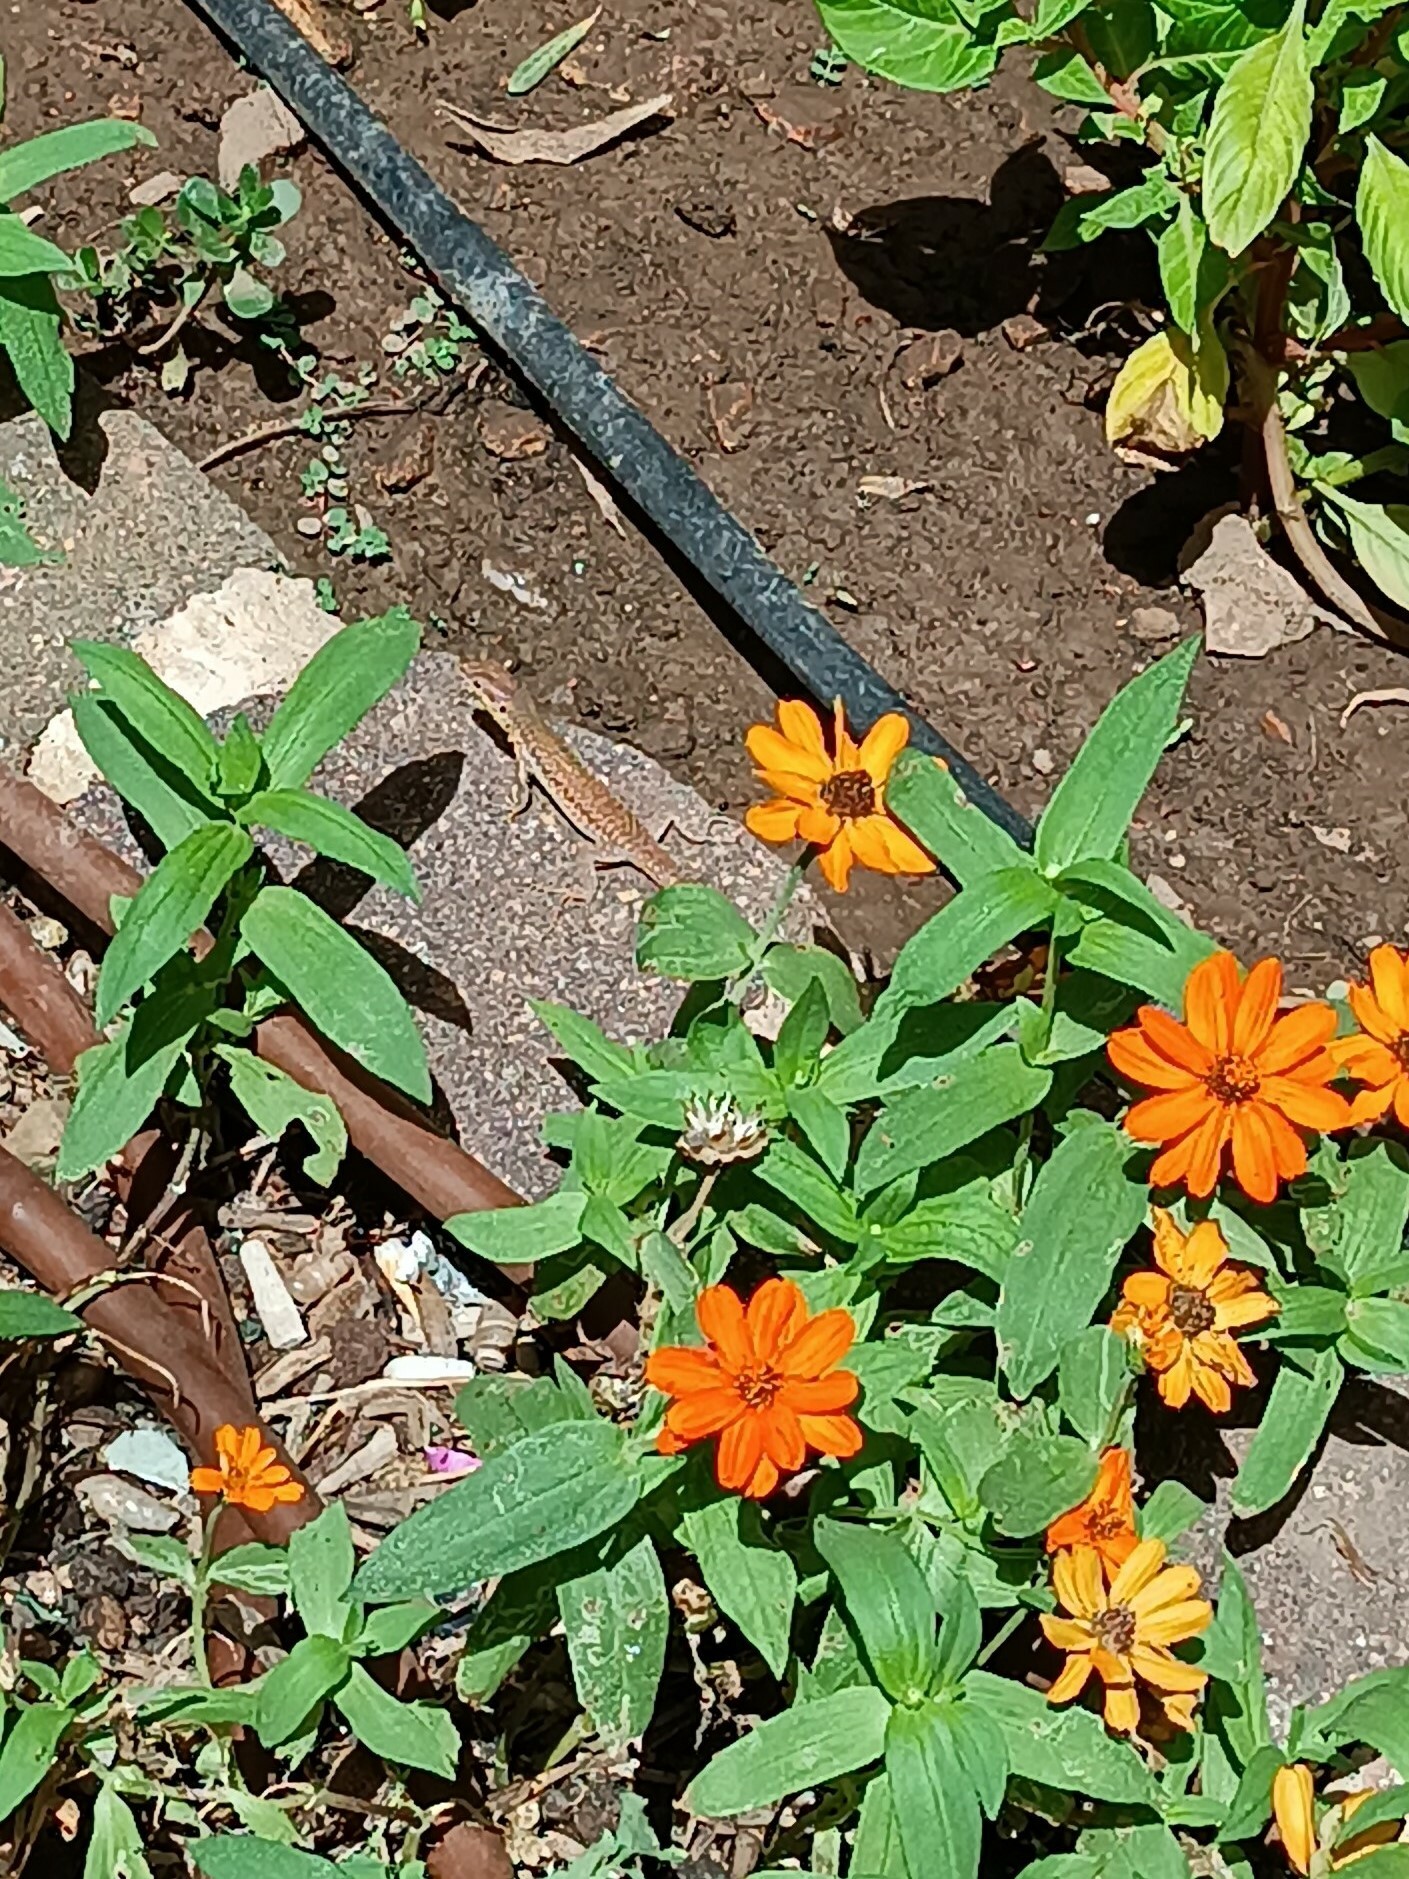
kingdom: Animalia
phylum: Chordata
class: Squamata
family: Lacertidae
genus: Podarcis
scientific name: Podarcis filfolensis
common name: Maltese wall lizard
